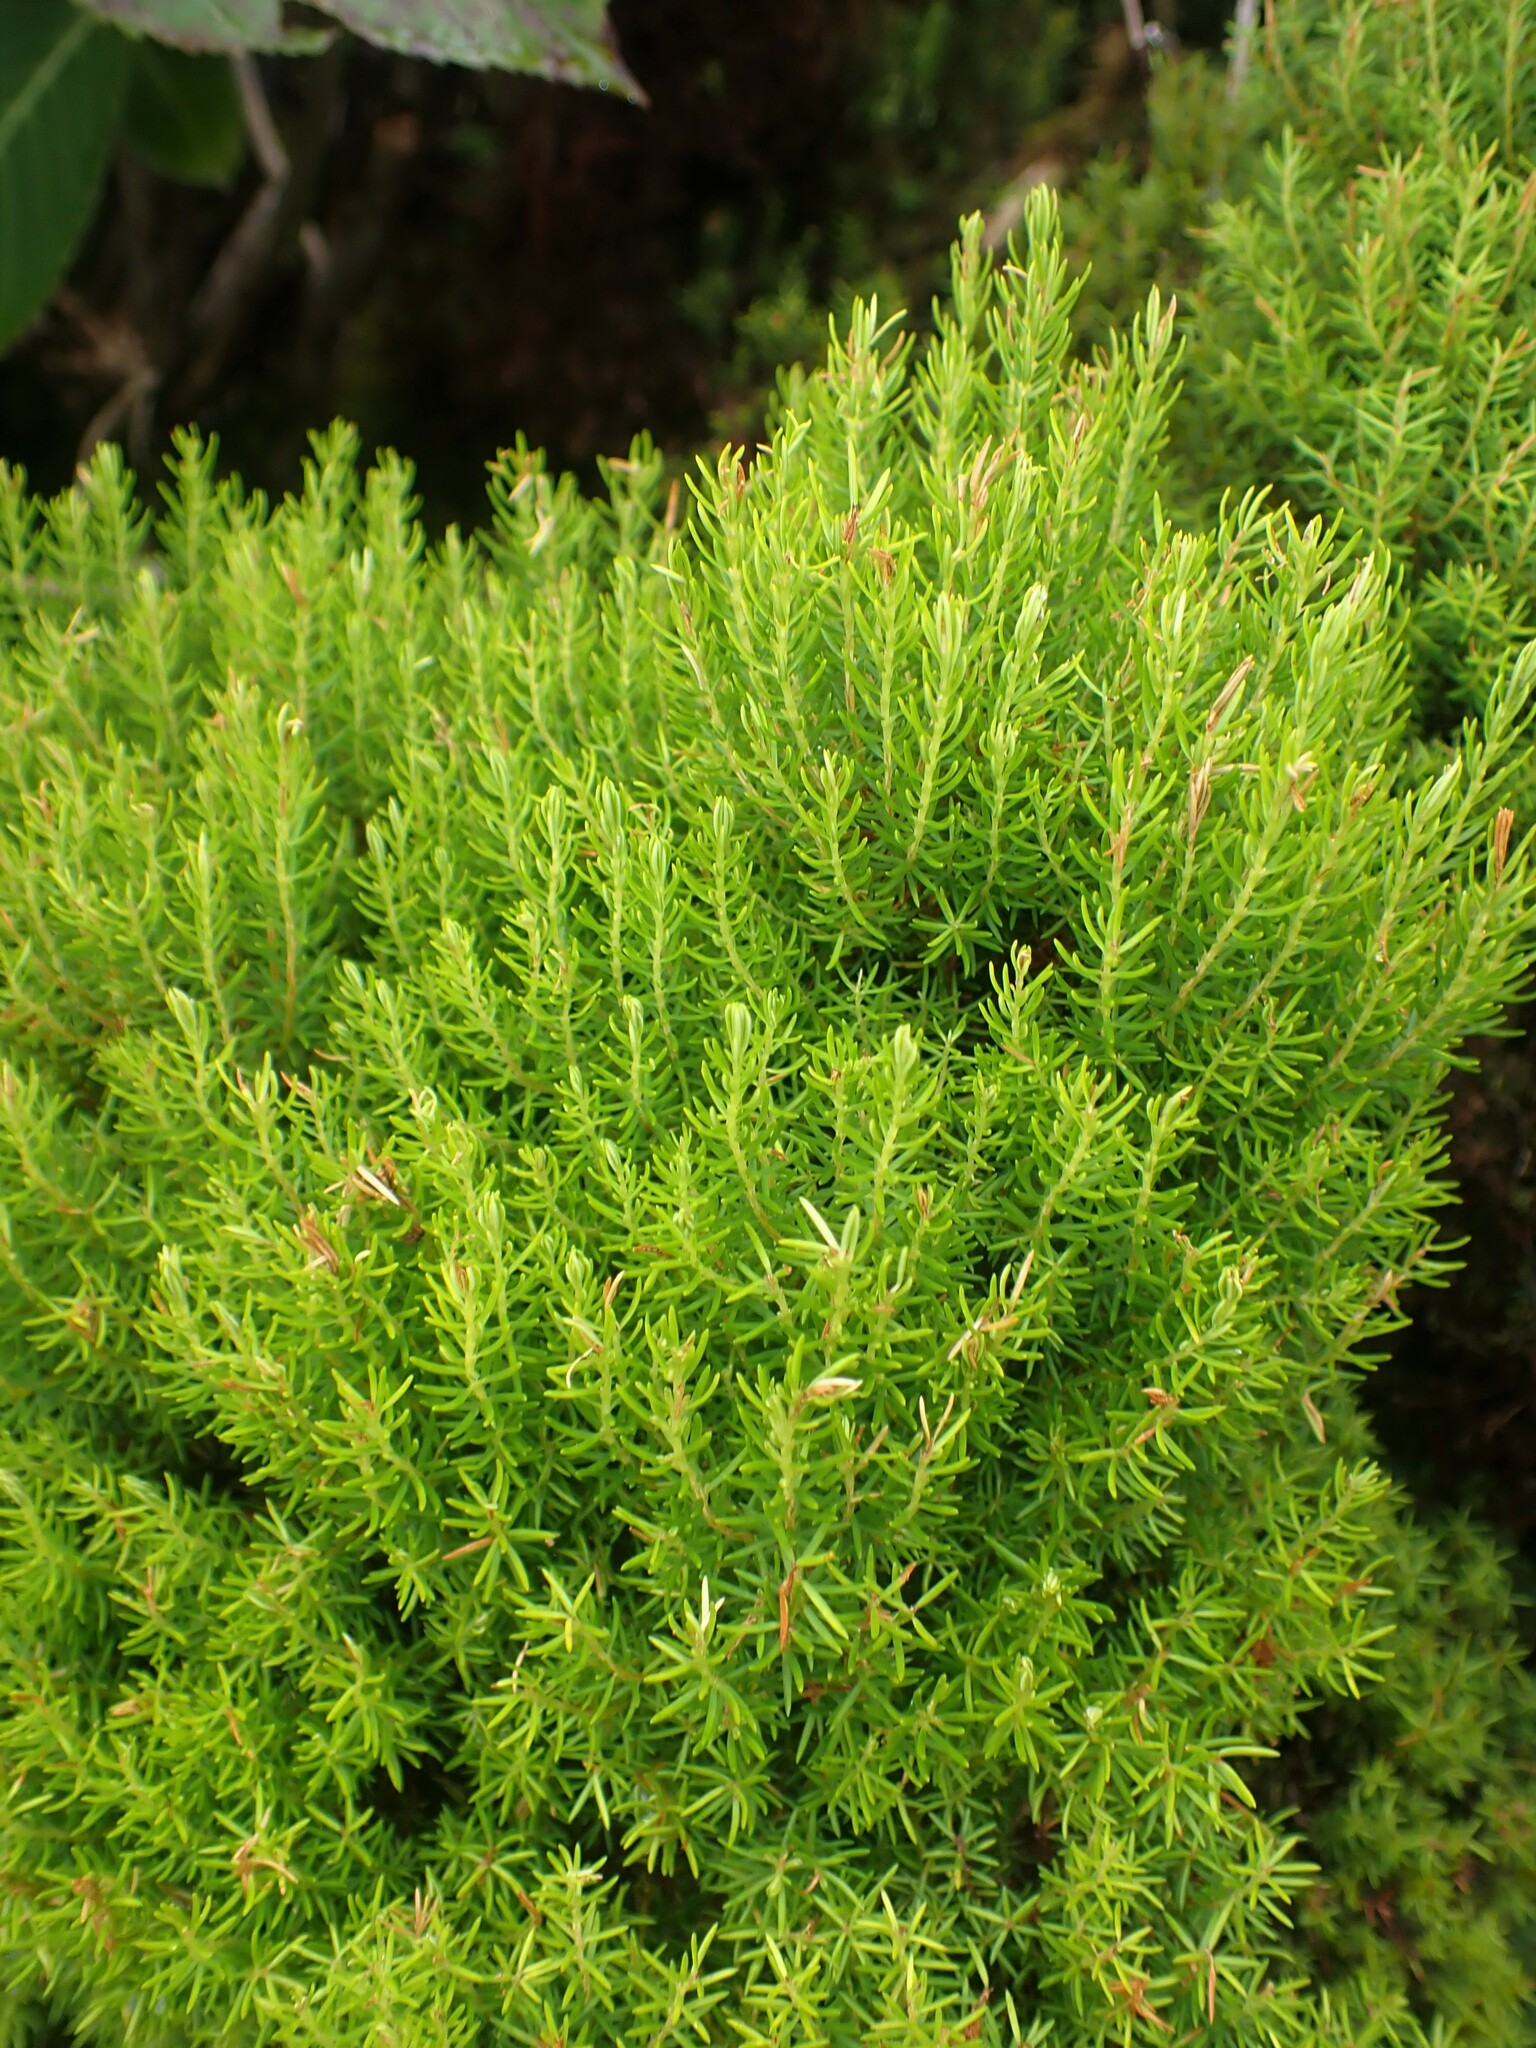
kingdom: Plantae
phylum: Tracheophyta
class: Magnoliopsida
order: Ericales
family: Ericaceae
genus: Erica
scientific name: Erica azorica
